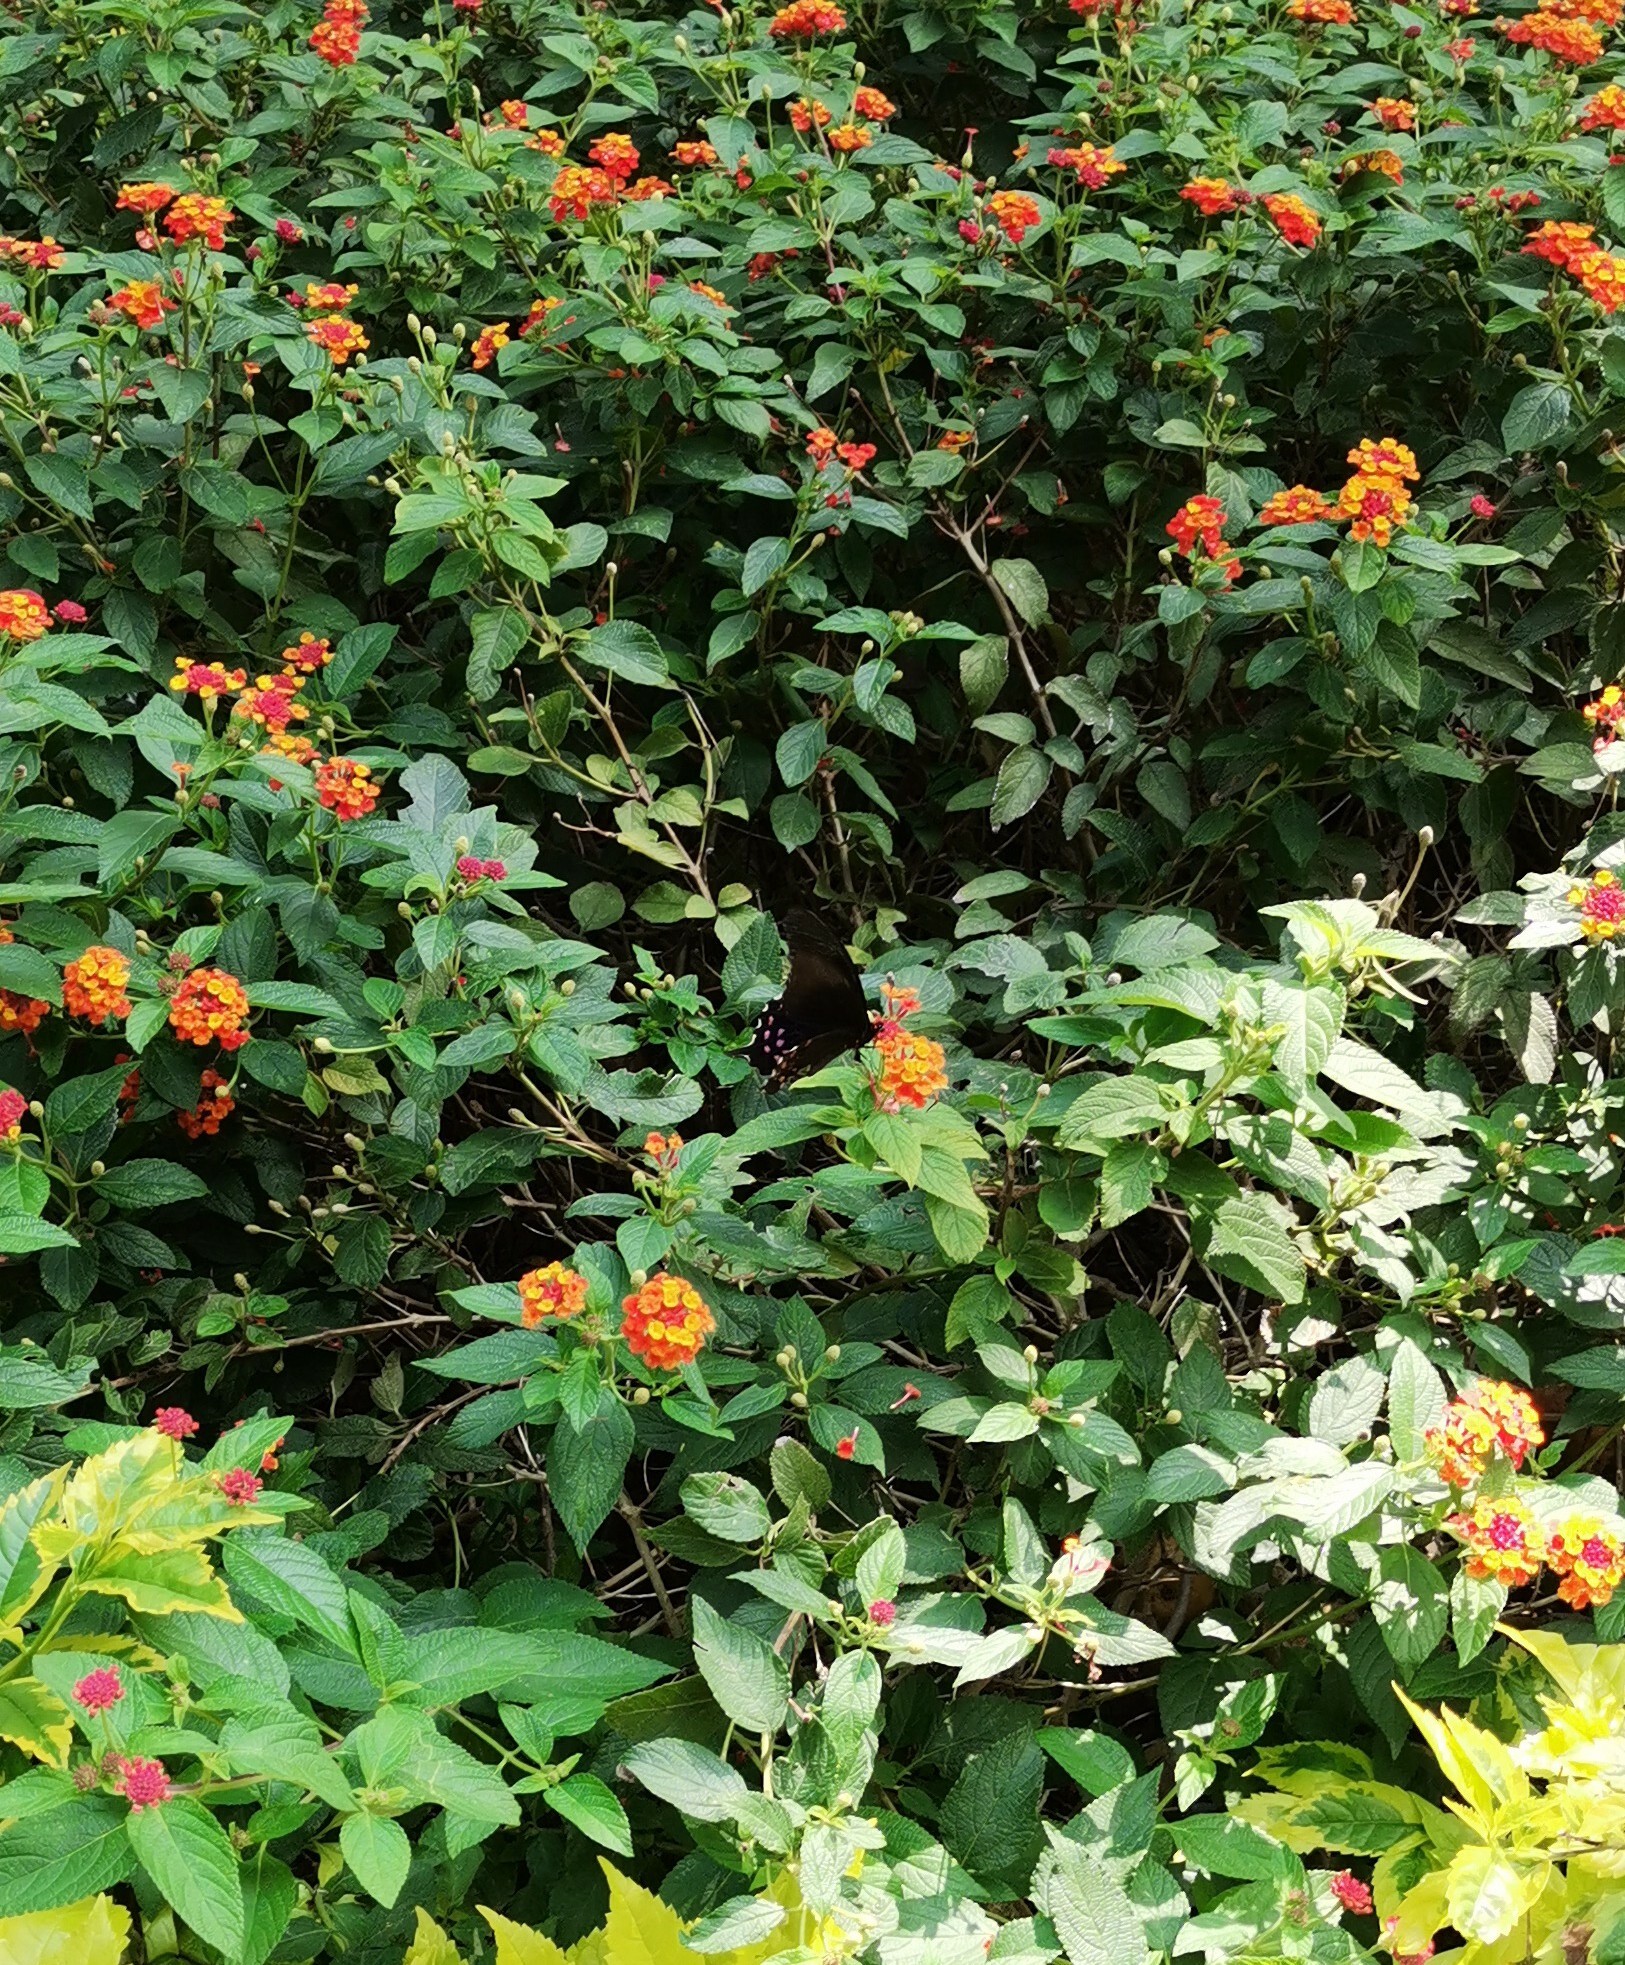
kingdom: Animalia
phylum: Arthropoda
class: Insecta
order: Lepidoptera
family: Papilionidae
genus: Heraclides
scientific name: Heraclides rogeri
